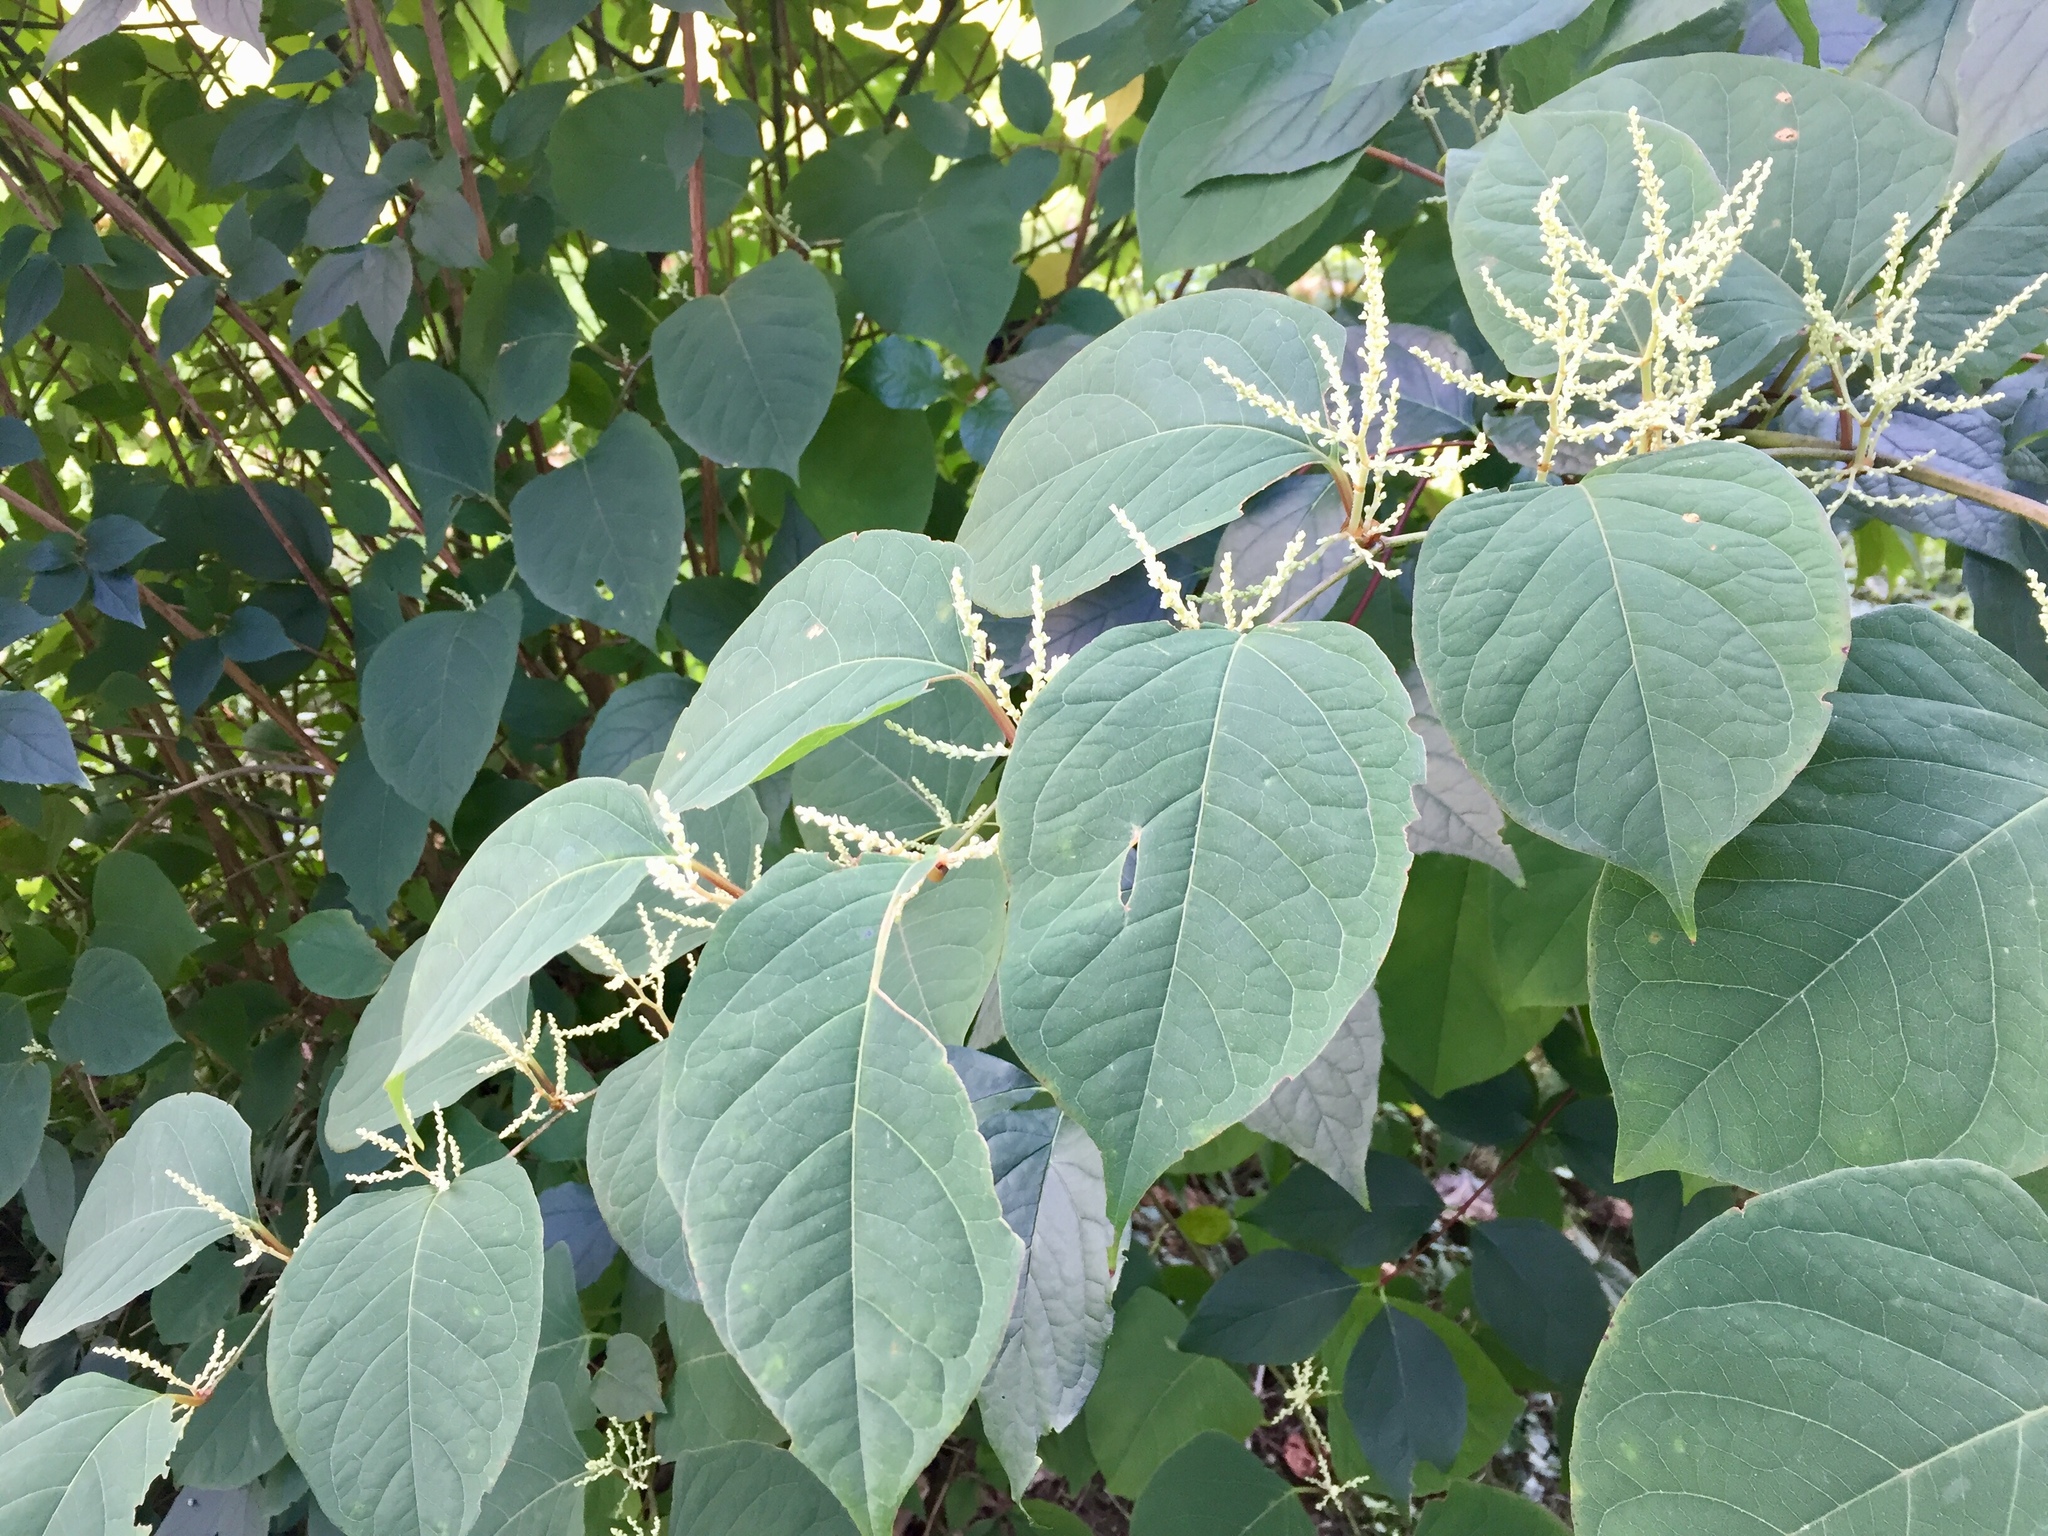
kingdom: Plantae
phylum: Tracheophyta
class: Magnoliopsida
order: Caryophyllales
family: Polygonaceae
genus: Reynoutria
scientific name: Reynoutria japonica
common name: Japanese knotweed
